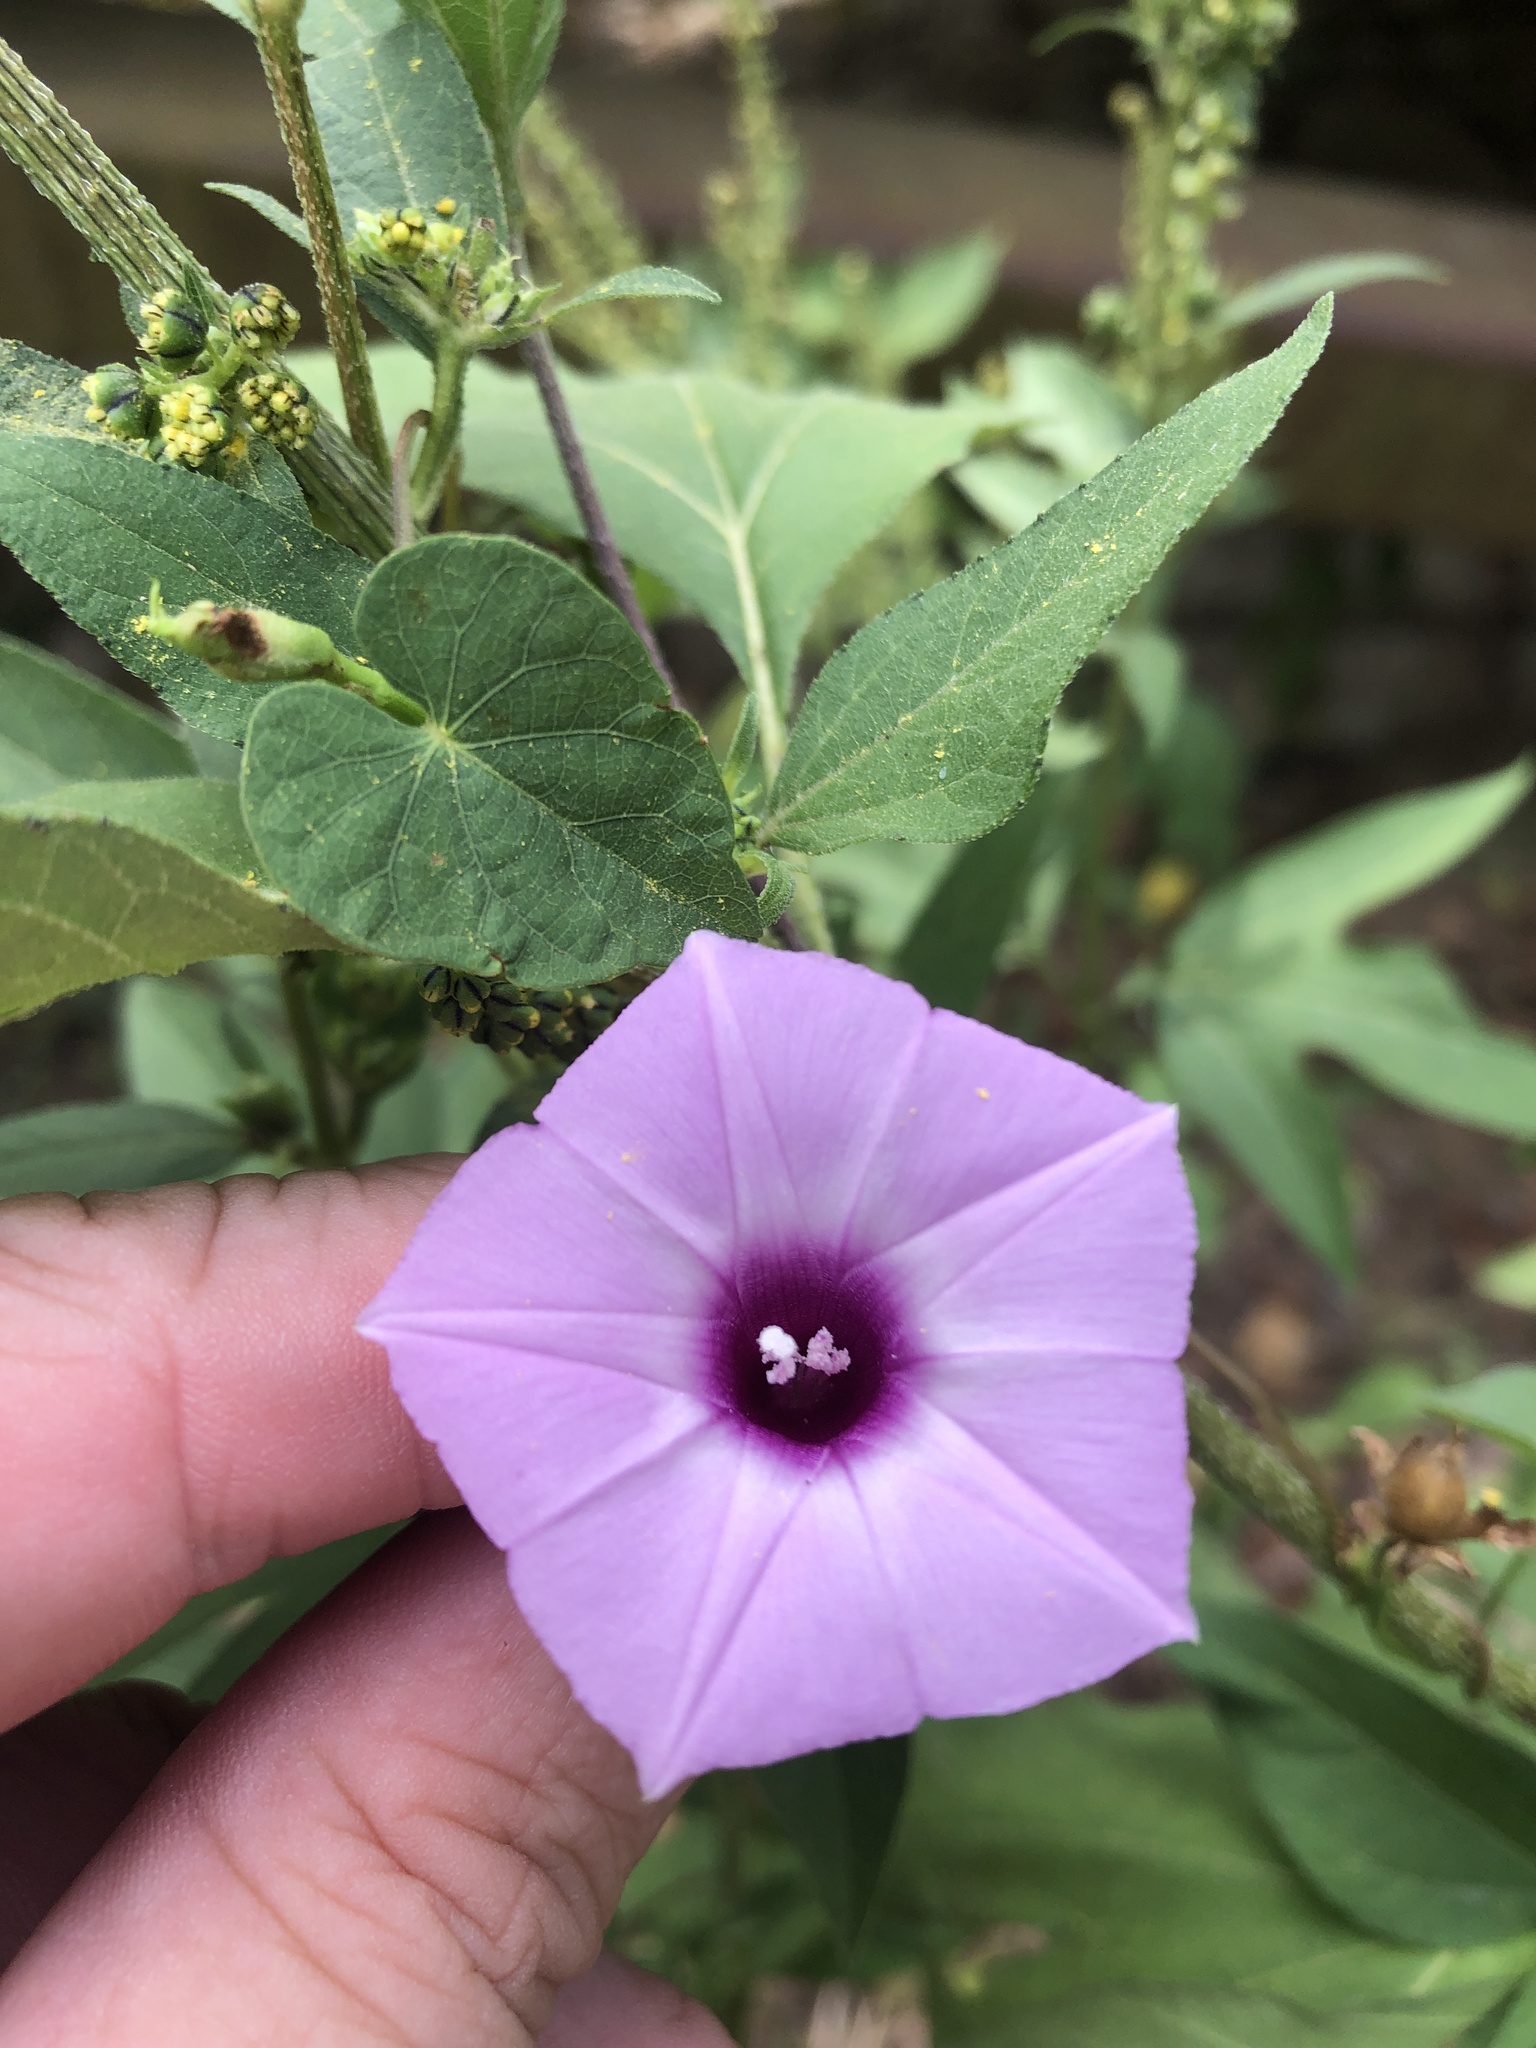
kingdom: Plantae
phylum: Tracheophyta
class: Magnoliopsida
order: Solanales
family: Convolvulaceae
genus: Ipomoea
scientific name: Ipomoea cordatotriloba
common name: Cotton morning glory
